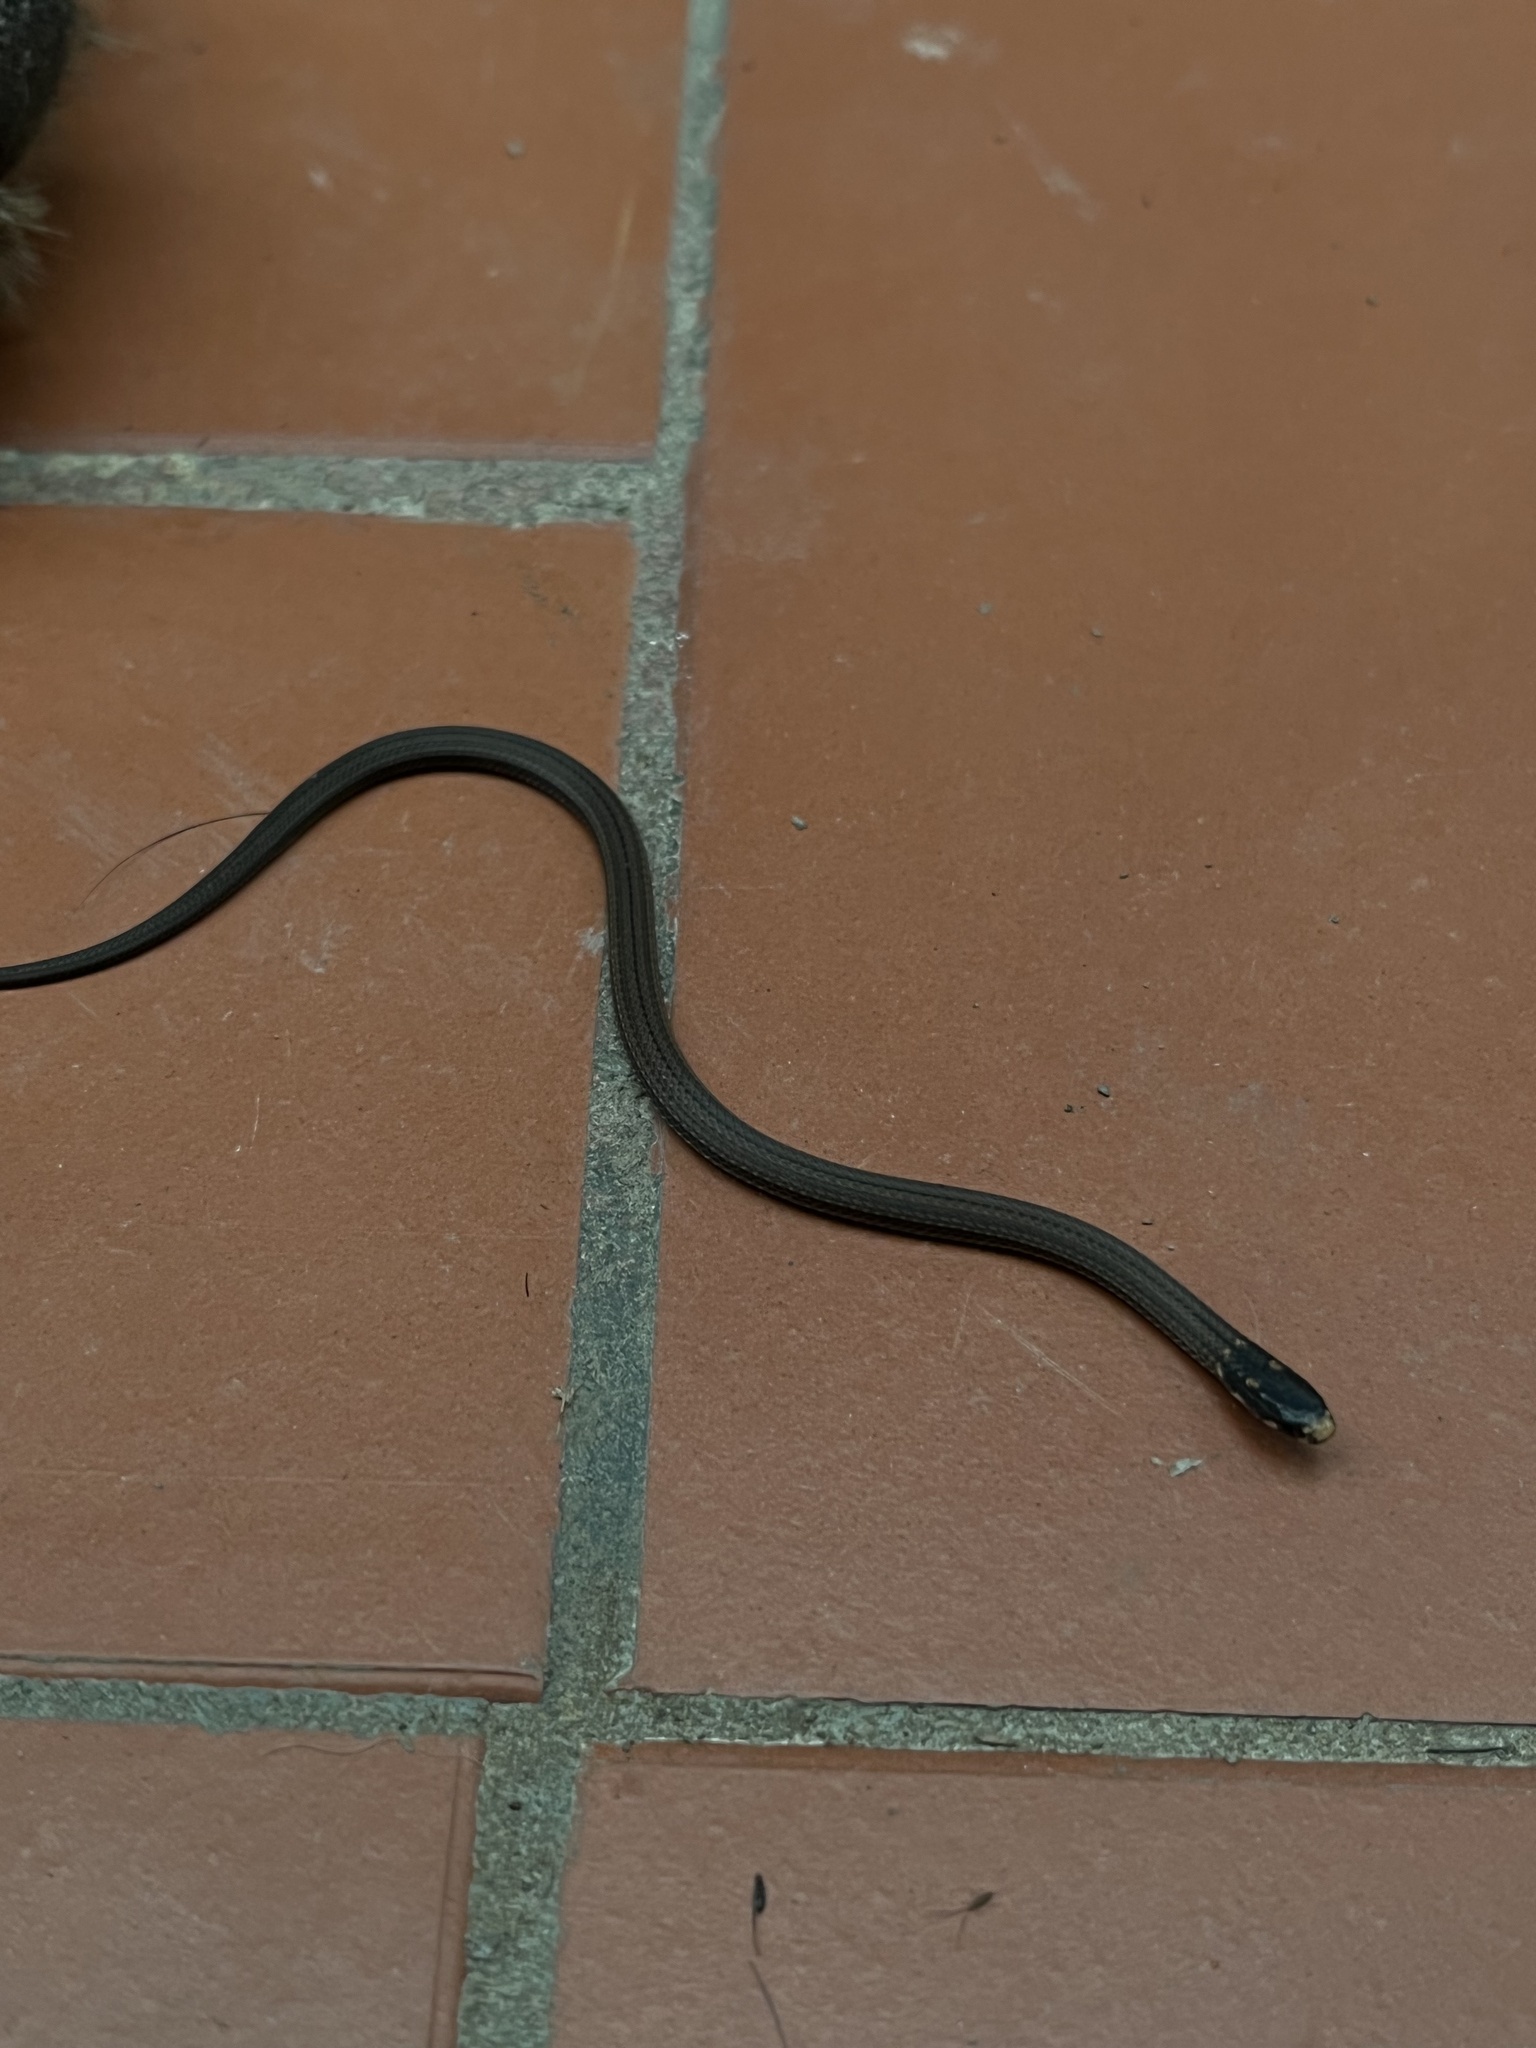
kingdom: Animalia
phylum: Chordata
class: Squamata
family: Colubridae
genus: Tantilla
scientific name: Tantilla melanocephala
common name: Black-headed snake
